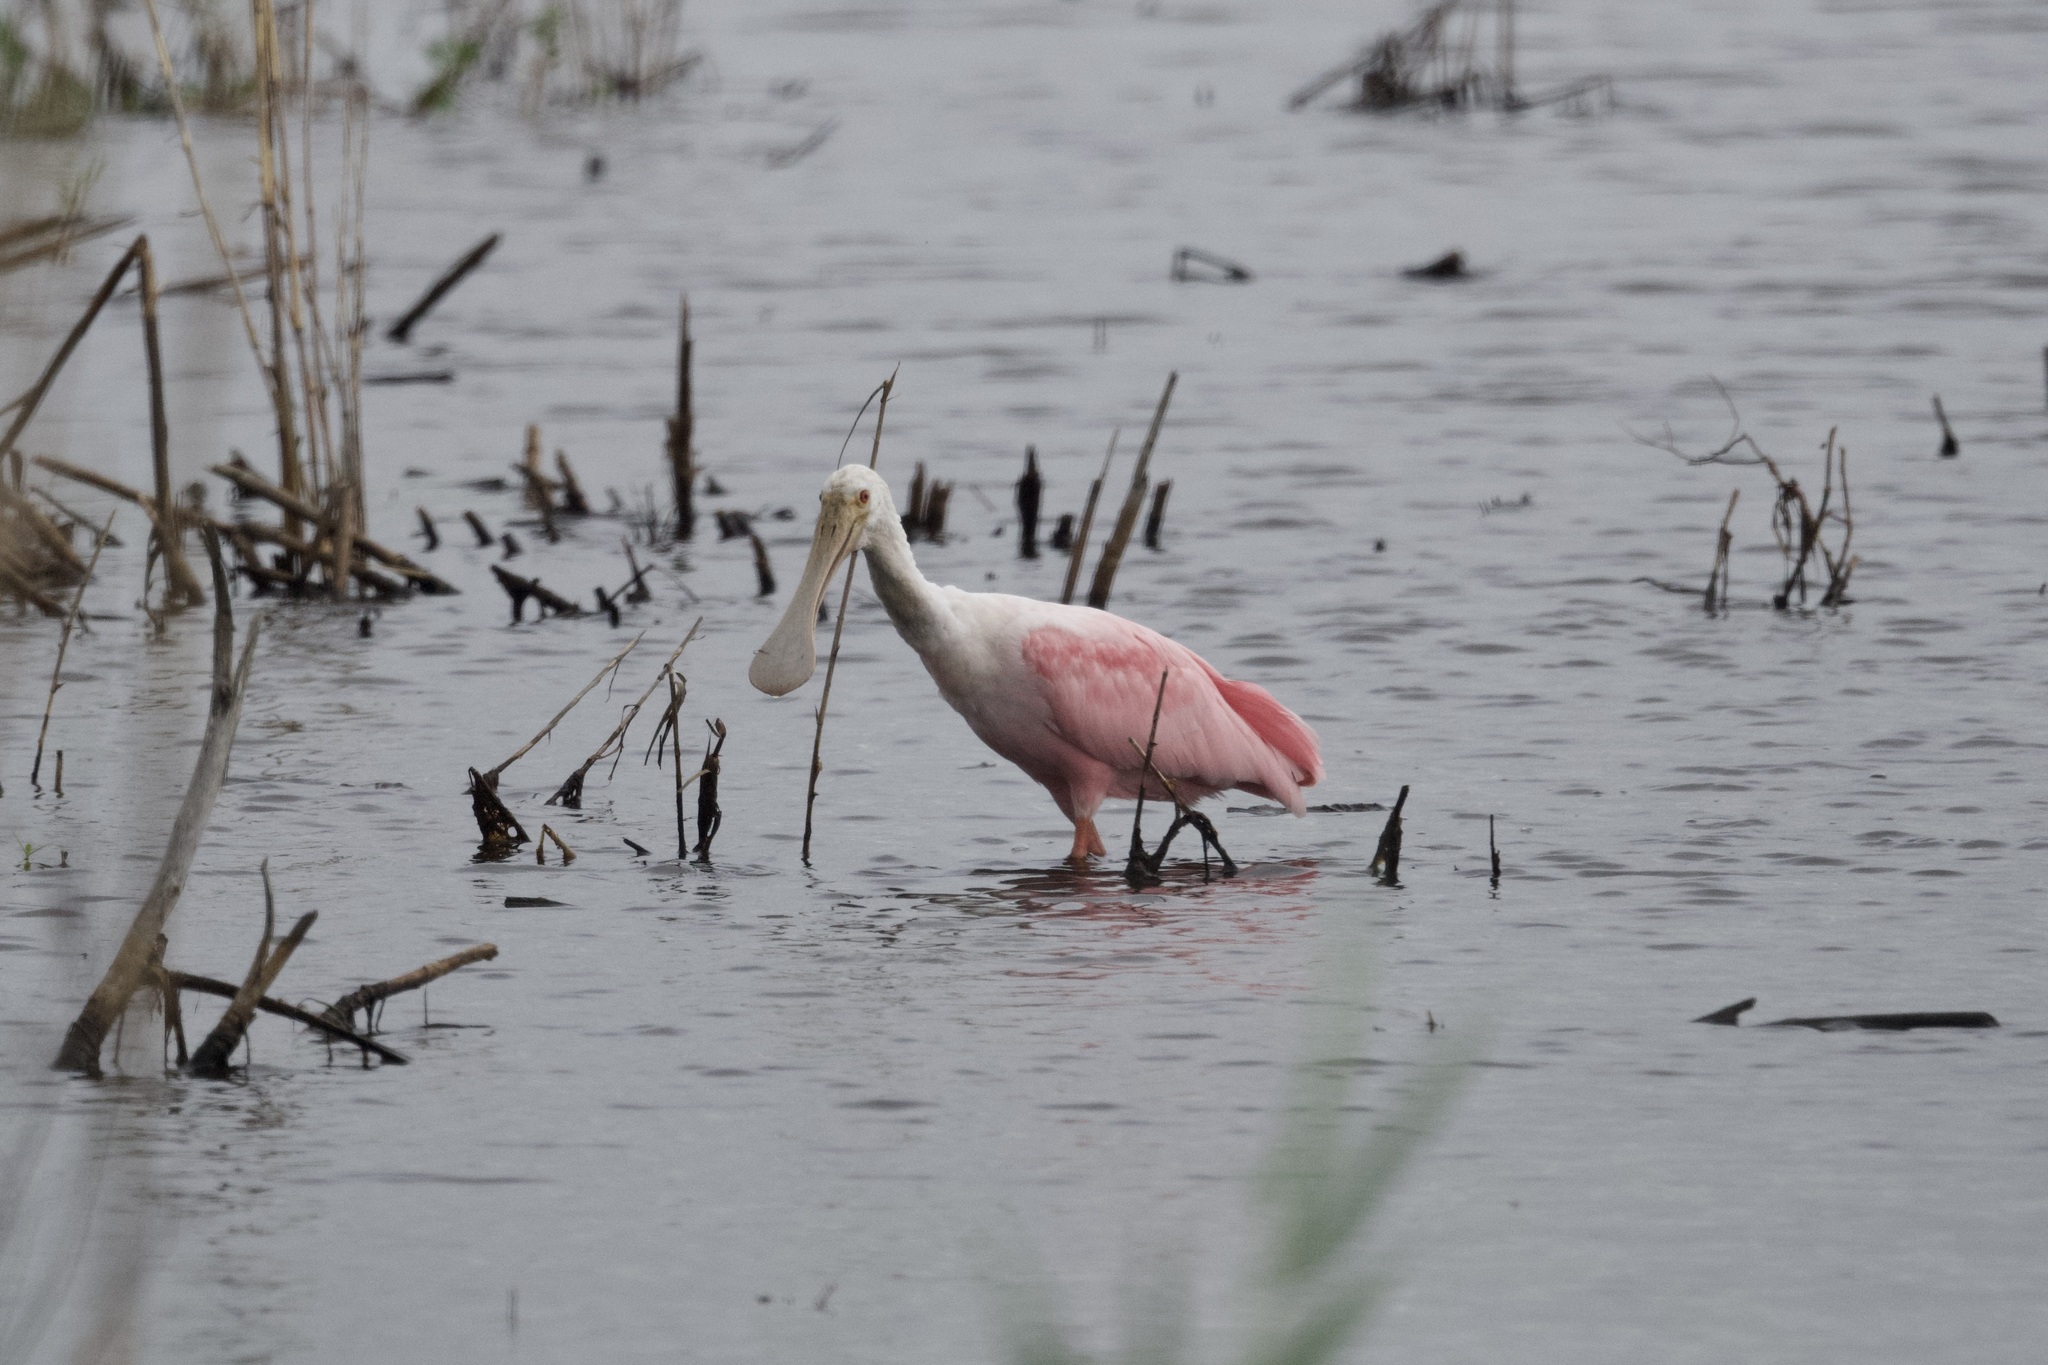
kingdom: Animalia
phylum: Chordata
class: Aves
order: Pelecaniformes
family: Threskiornithidae
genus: Platalea
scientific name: Platalea ajaja
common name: Roseate spoonbill
